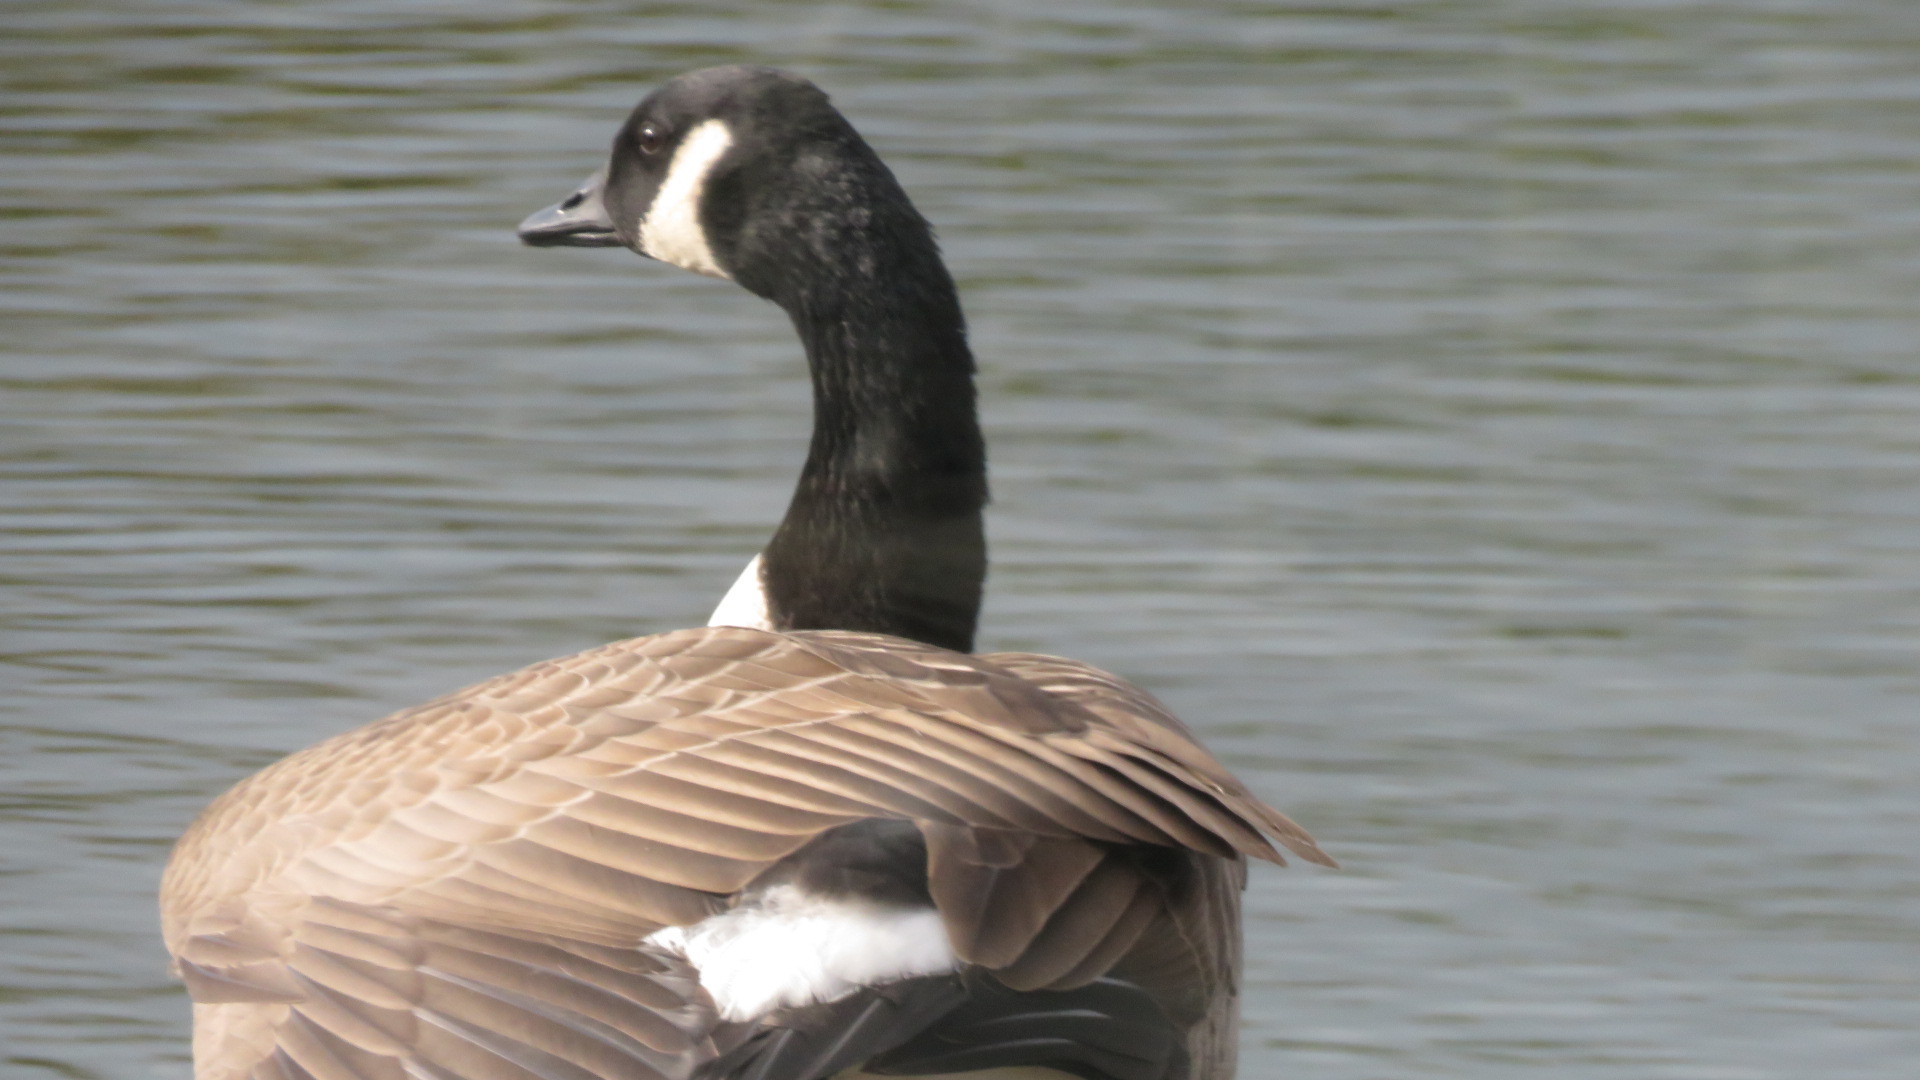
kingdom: Animalia
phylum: Chordata
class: Aves
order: Anseriformes
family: Anatidae
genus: Branta
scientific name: Branta canadensis
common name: Canada goose
